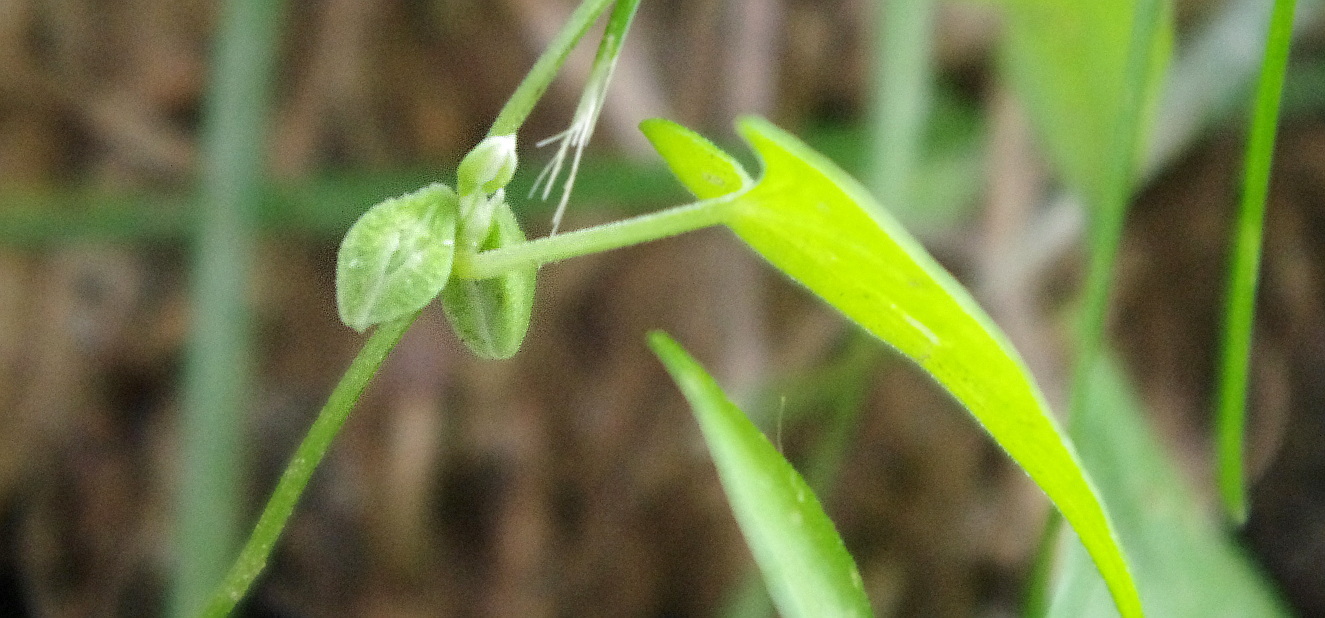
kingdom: Plantae
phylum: Tracheophyta
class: Magnoliopsida
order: Caryophyllales
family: Polygonaceae
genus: Fallopia
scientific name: Fallopia convolvulus
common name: Black bindweed
